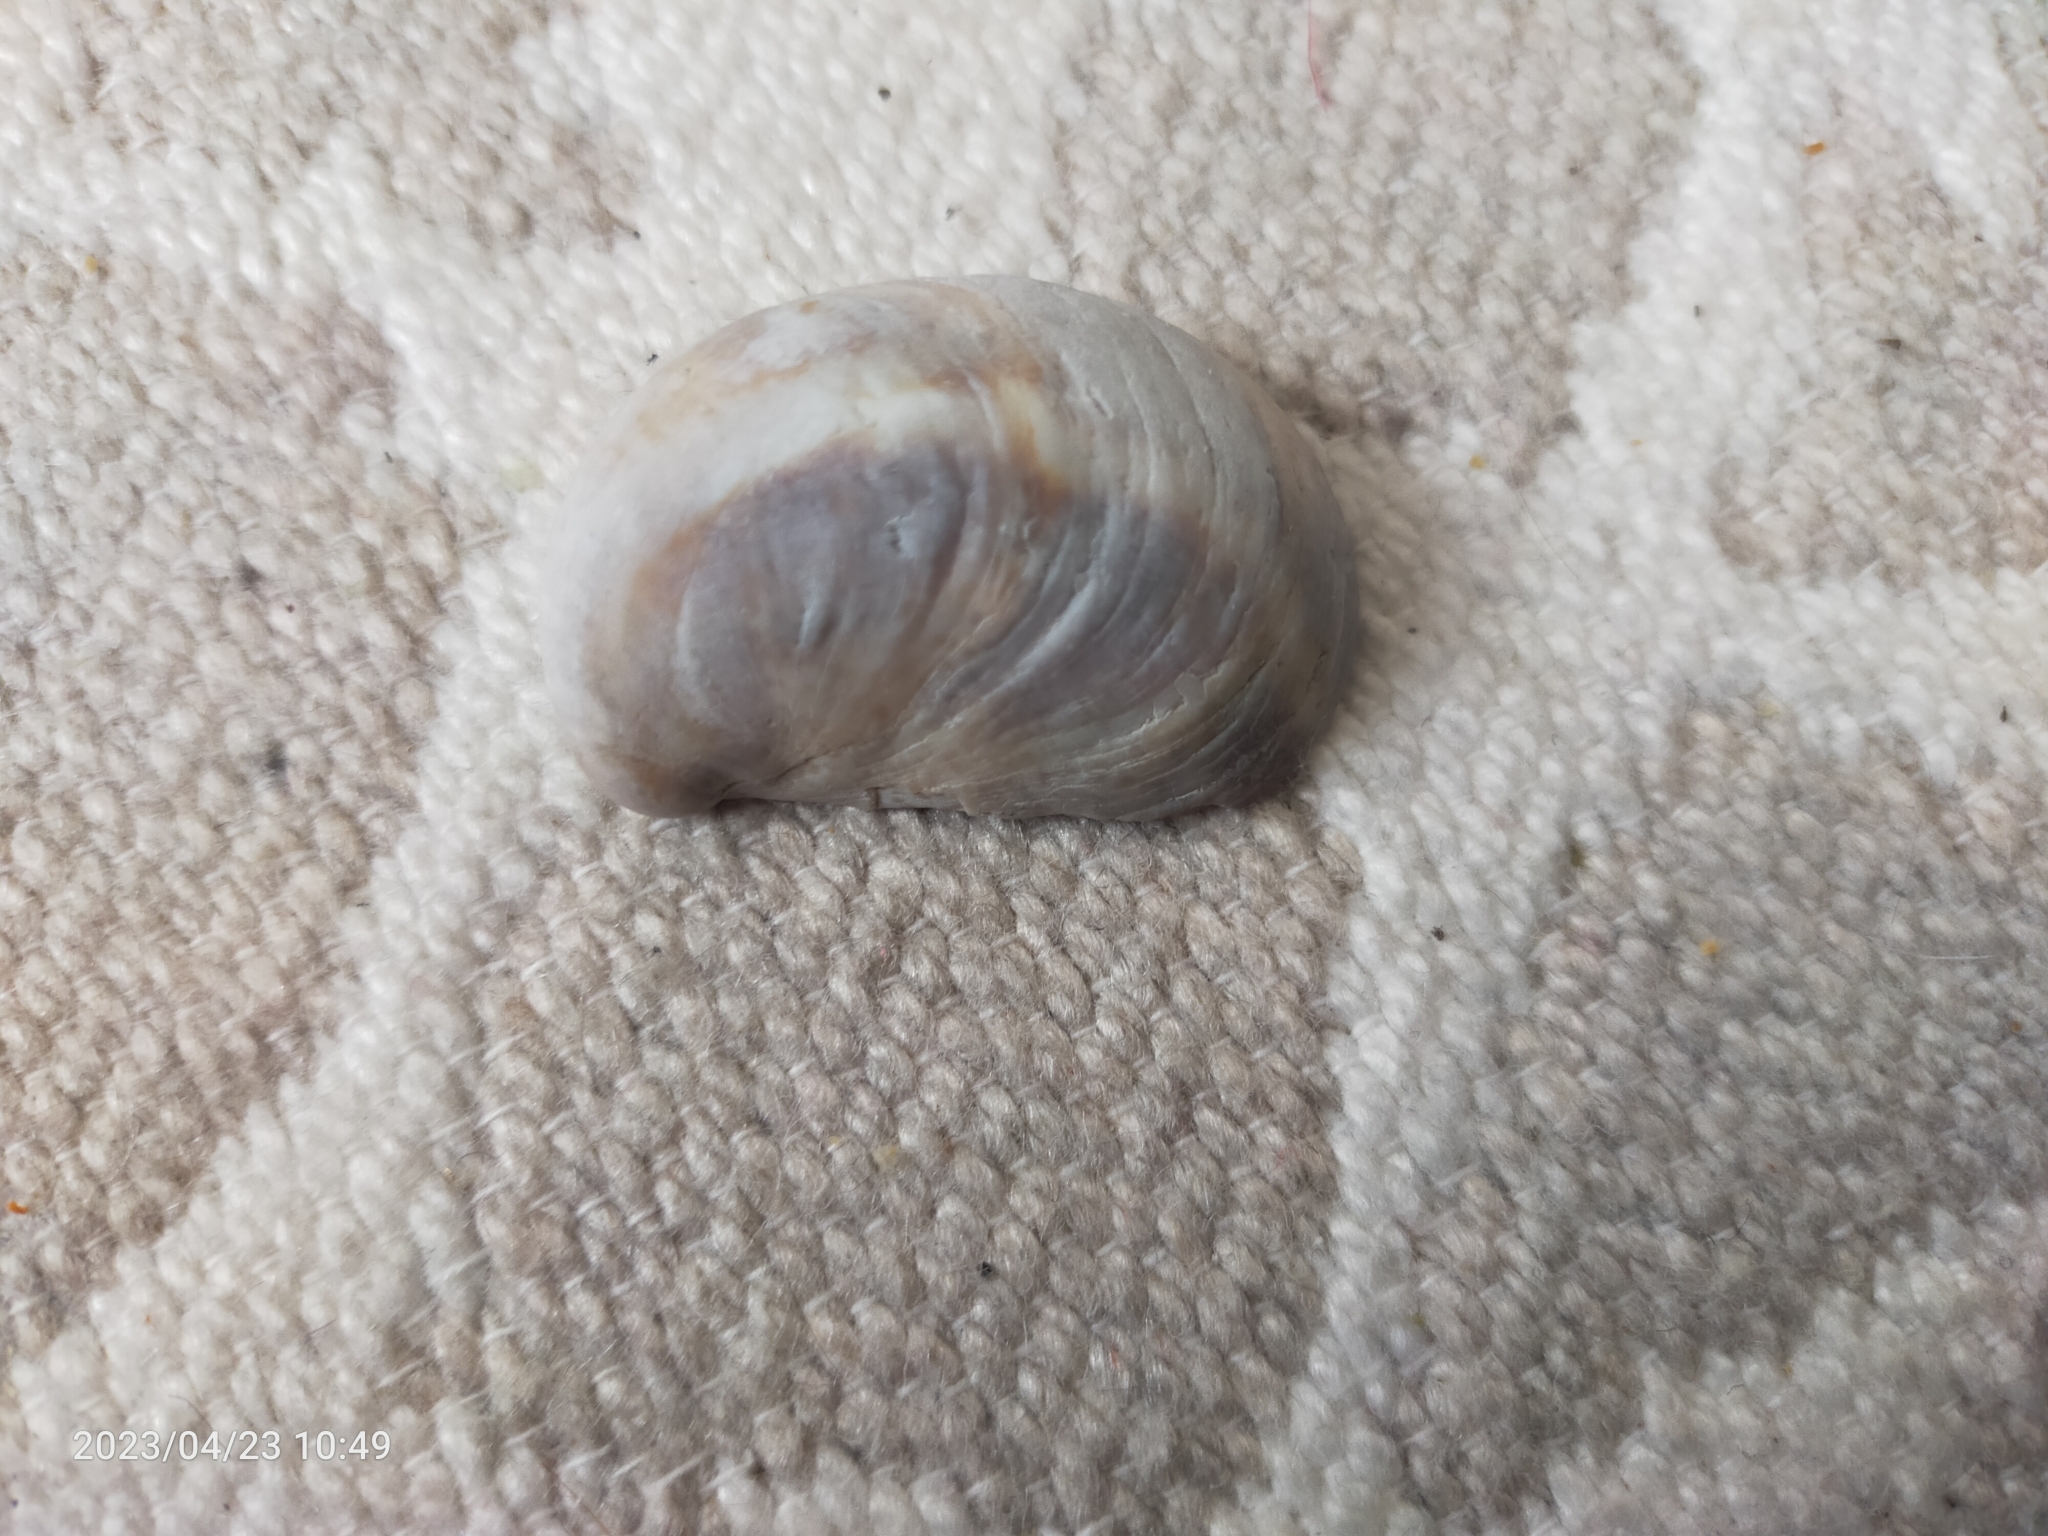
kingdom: Animalia
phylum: Mollusca
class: Gastropoda
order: Littorinimorpha
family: Calyptraeidae
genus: Crepidula
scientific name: Crepidula fornicata
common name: Slipper limpet
